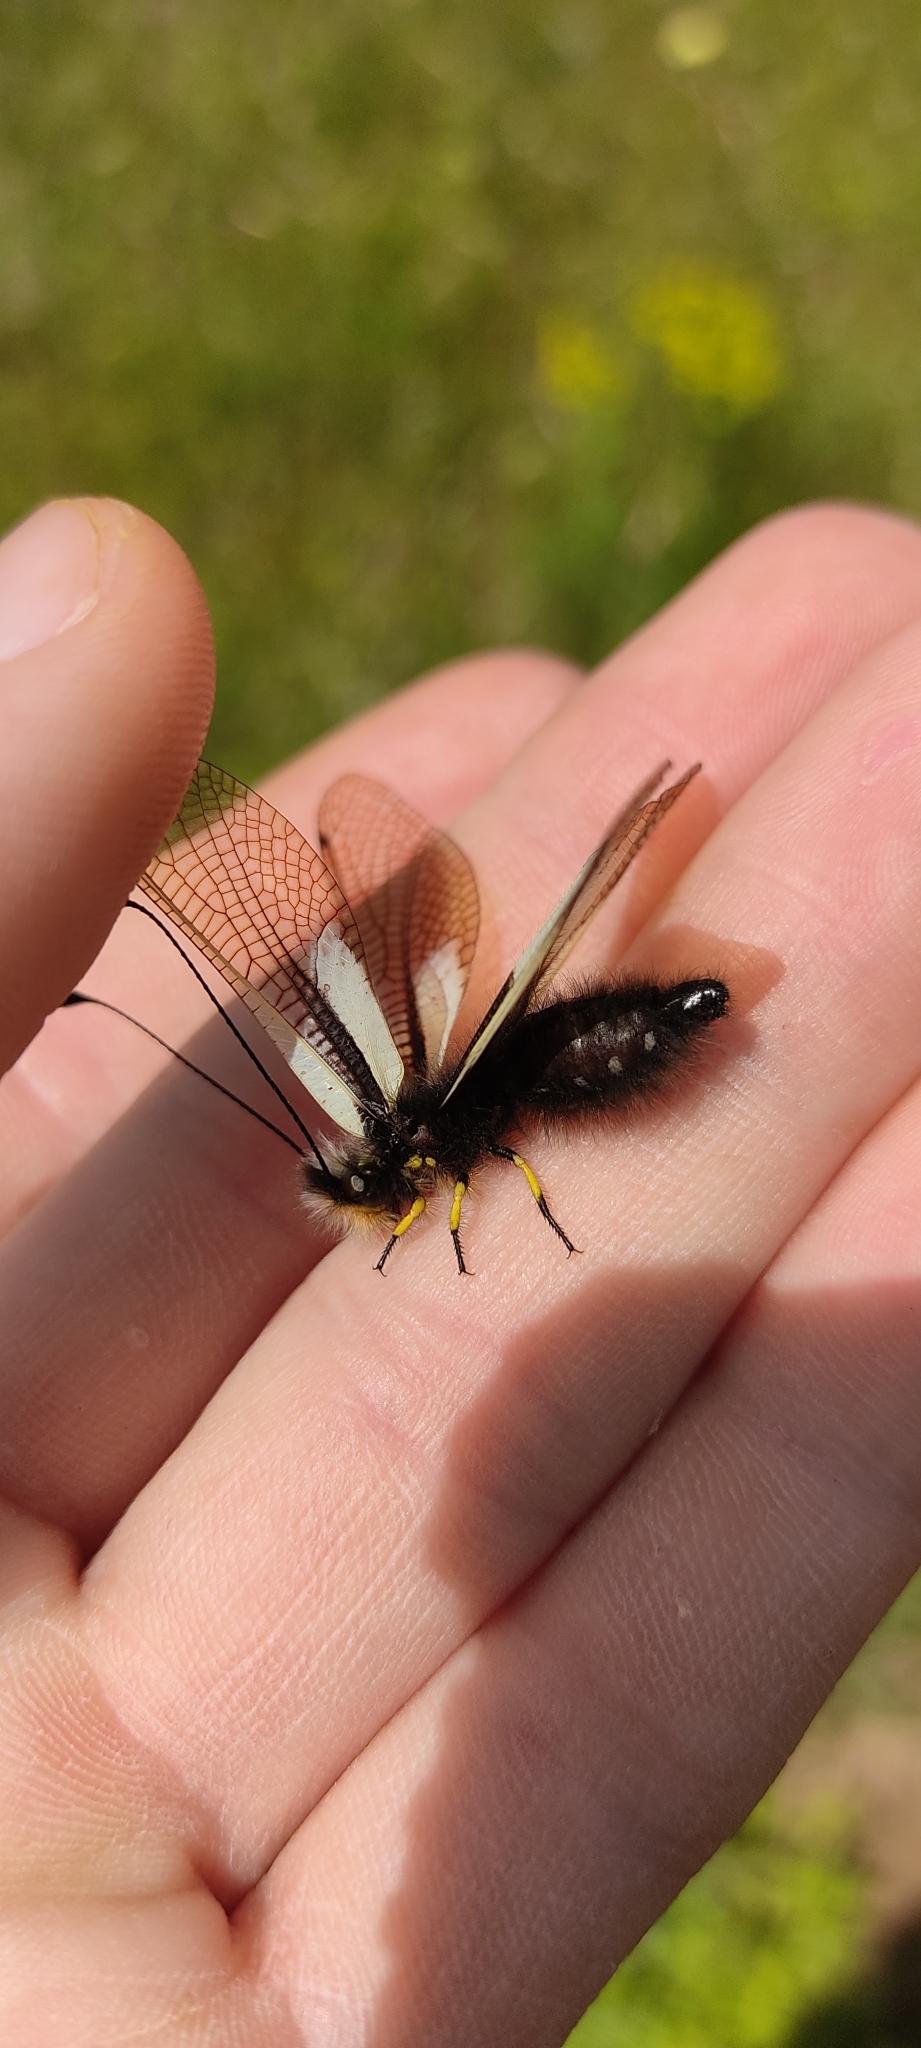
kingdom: Animalia
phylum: Arthropoda
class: Insecta
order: Neuroptera
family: Ascalaphidae
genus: Libelloides
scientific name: Libelloides coccajus
